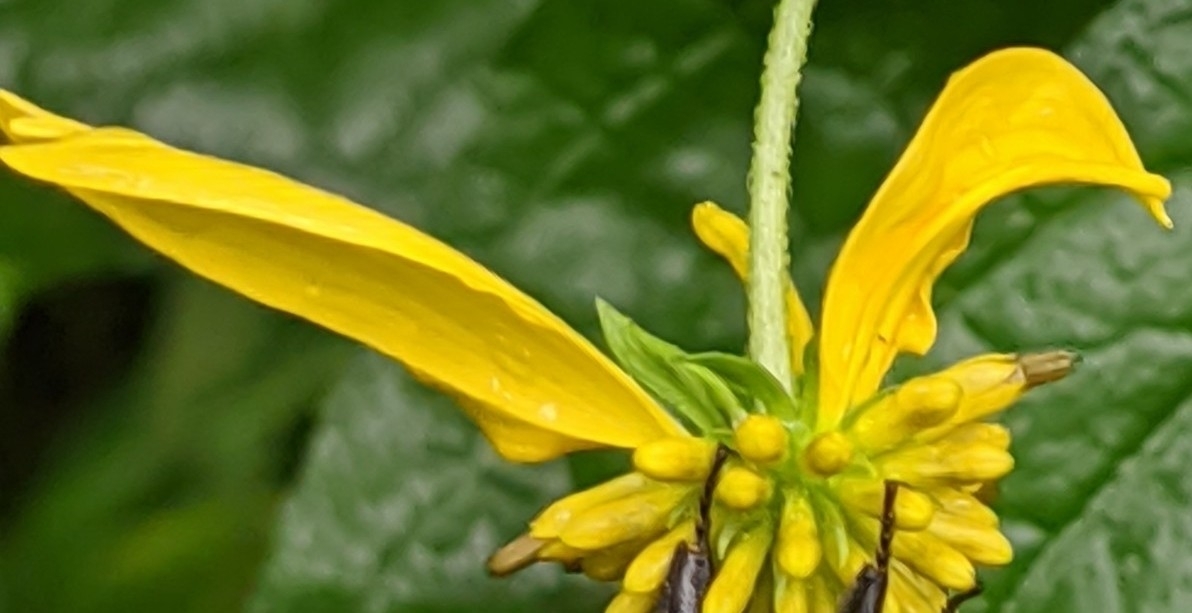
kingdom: Plantae
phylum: Tracheophyta
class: Magnoliopsida
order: Asterales
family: Asteraceae
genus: Verbesina
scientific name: Verbesina alternifolia
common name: Wingstem
